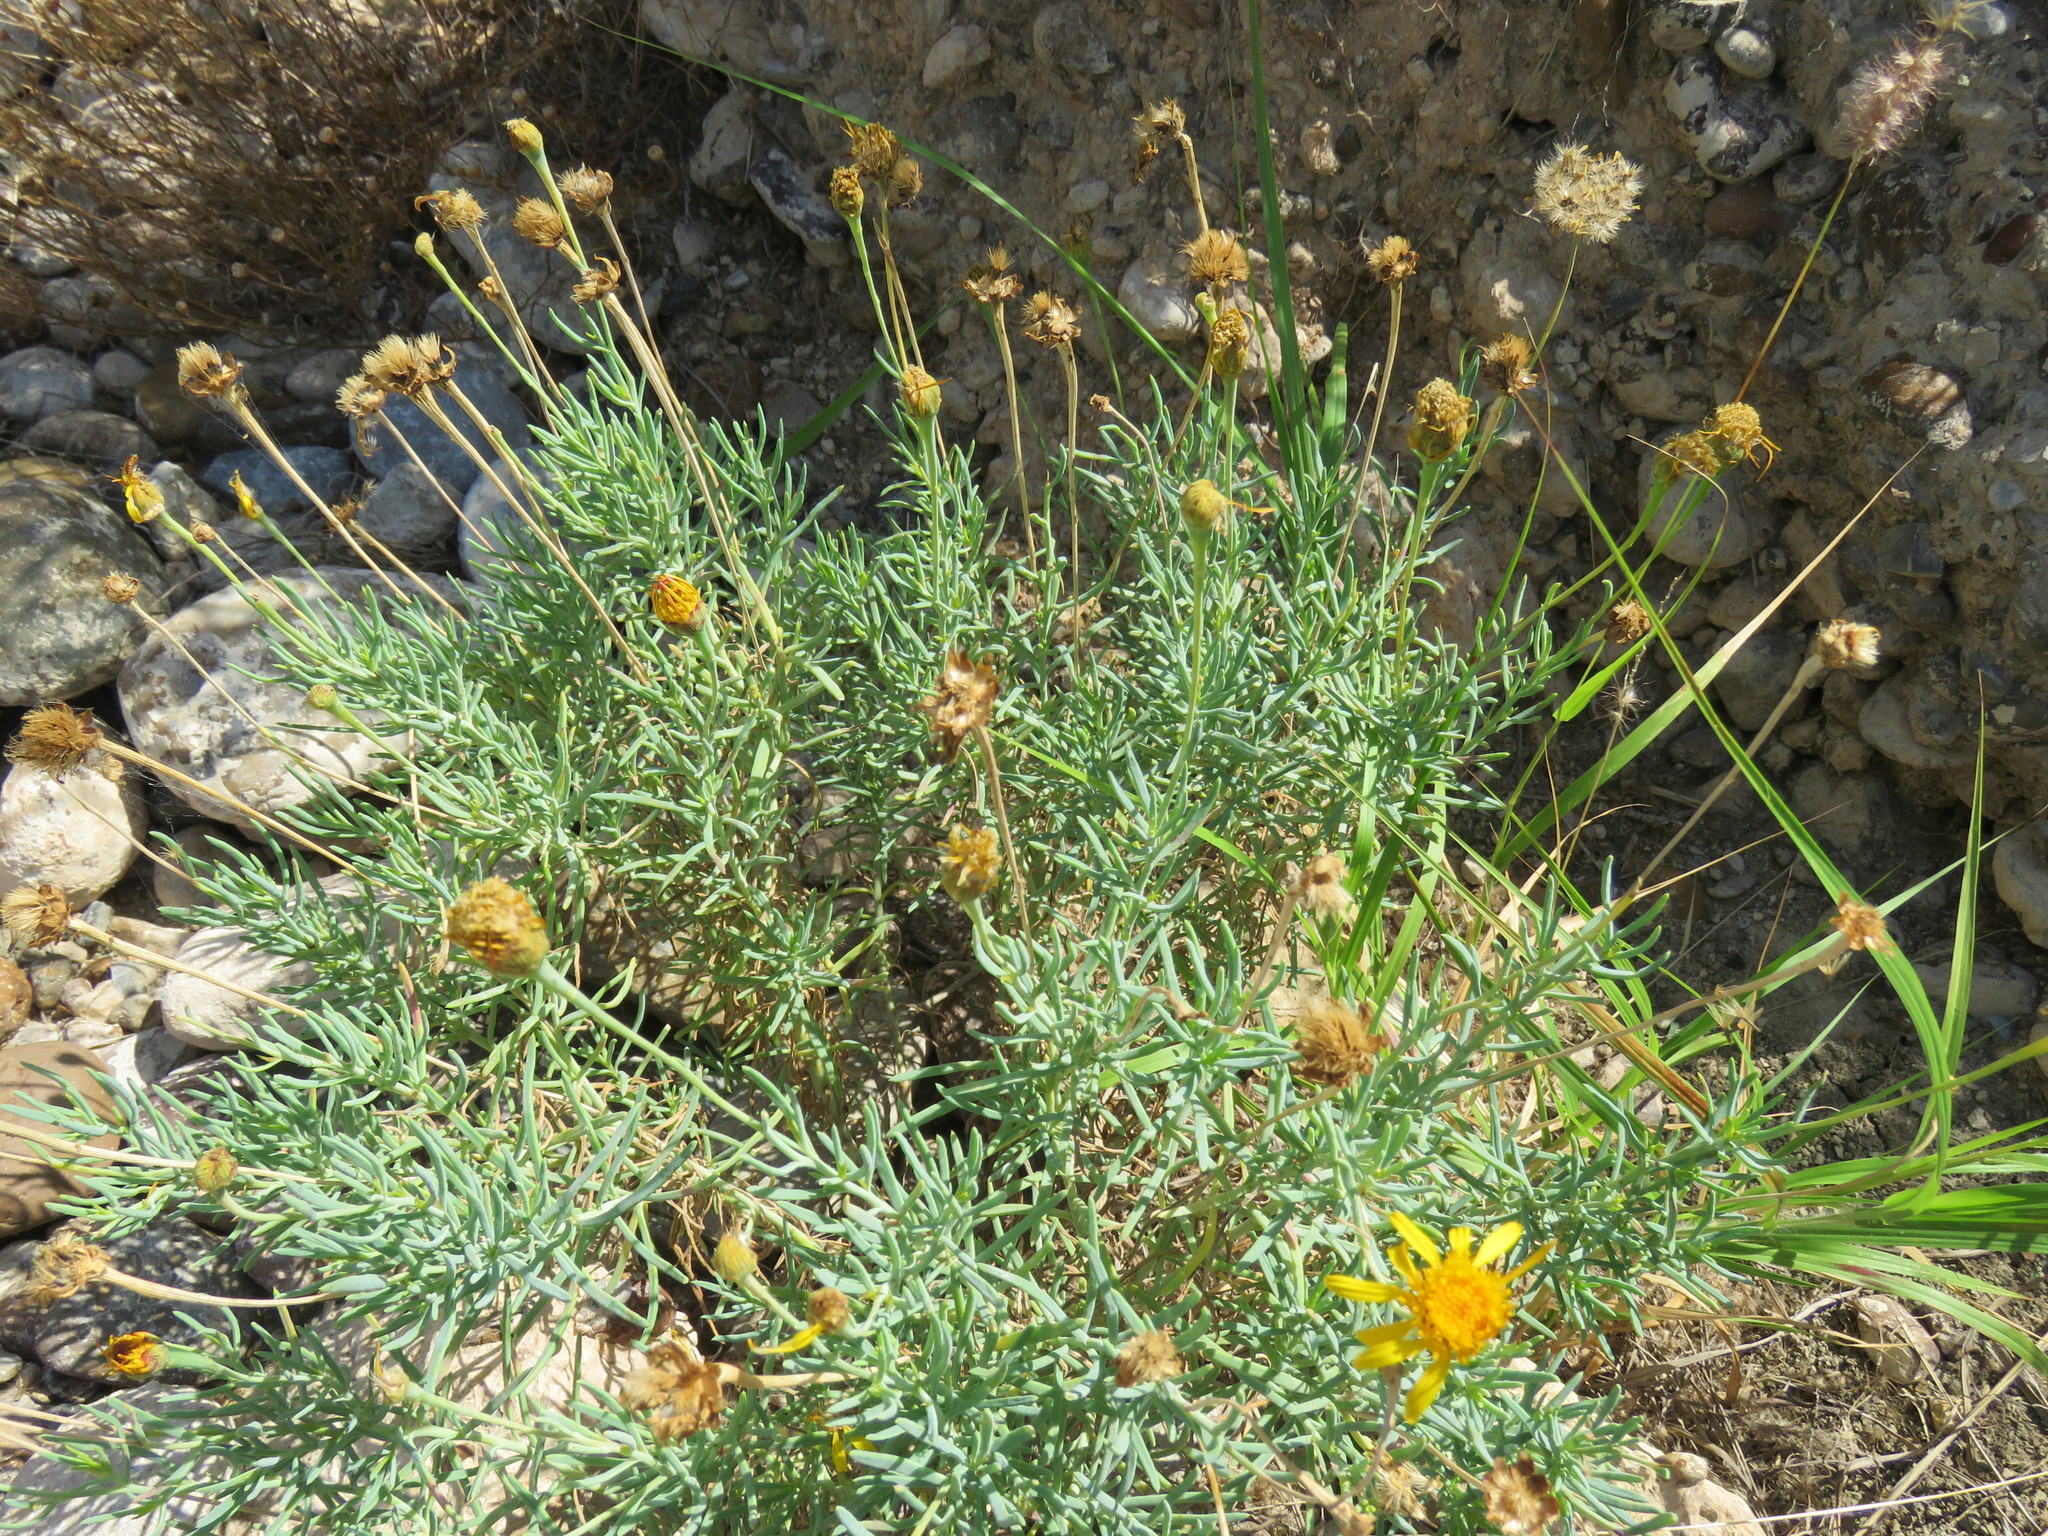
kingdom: Plantae
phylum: Tracheophyta
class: Magnoliopsida
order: Asterales
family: Asteraceae
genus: Clappia
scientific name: Clappia suaedifolia
